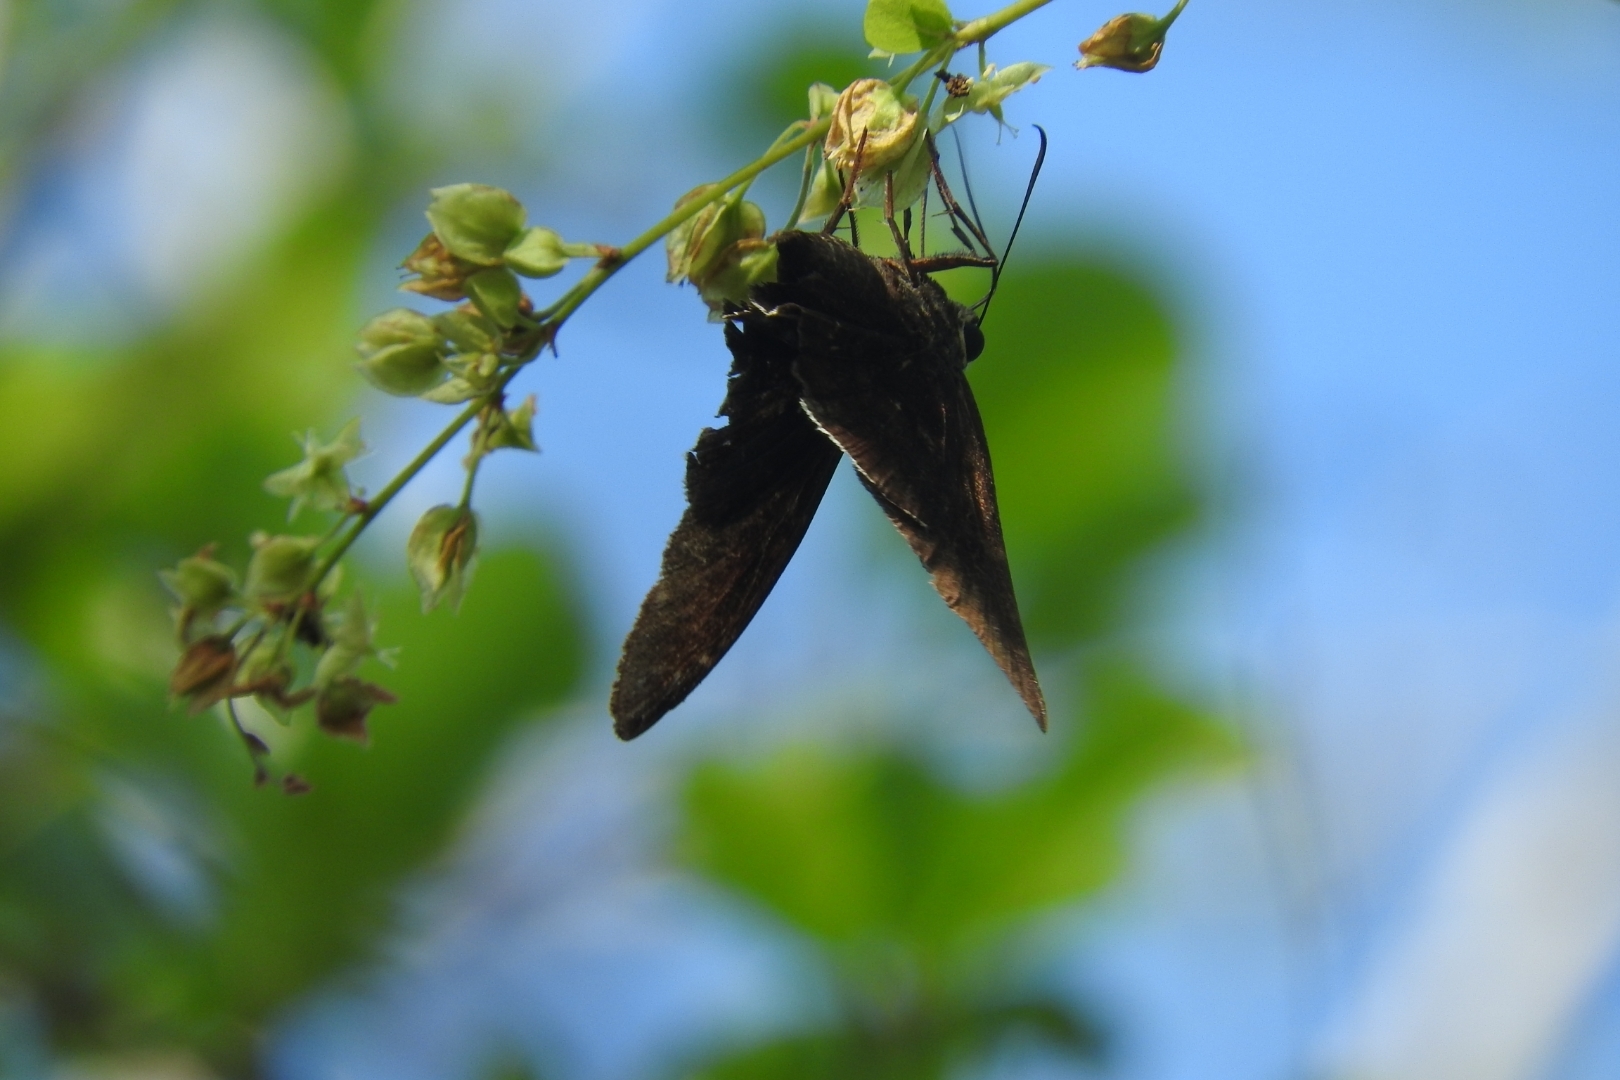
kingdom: Animalia
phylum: Arthropoda
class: Insecta
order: Lepidoptera
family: Hesperiidae
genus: Urbanus
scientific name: Urbanus procne
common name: Brown longtail
